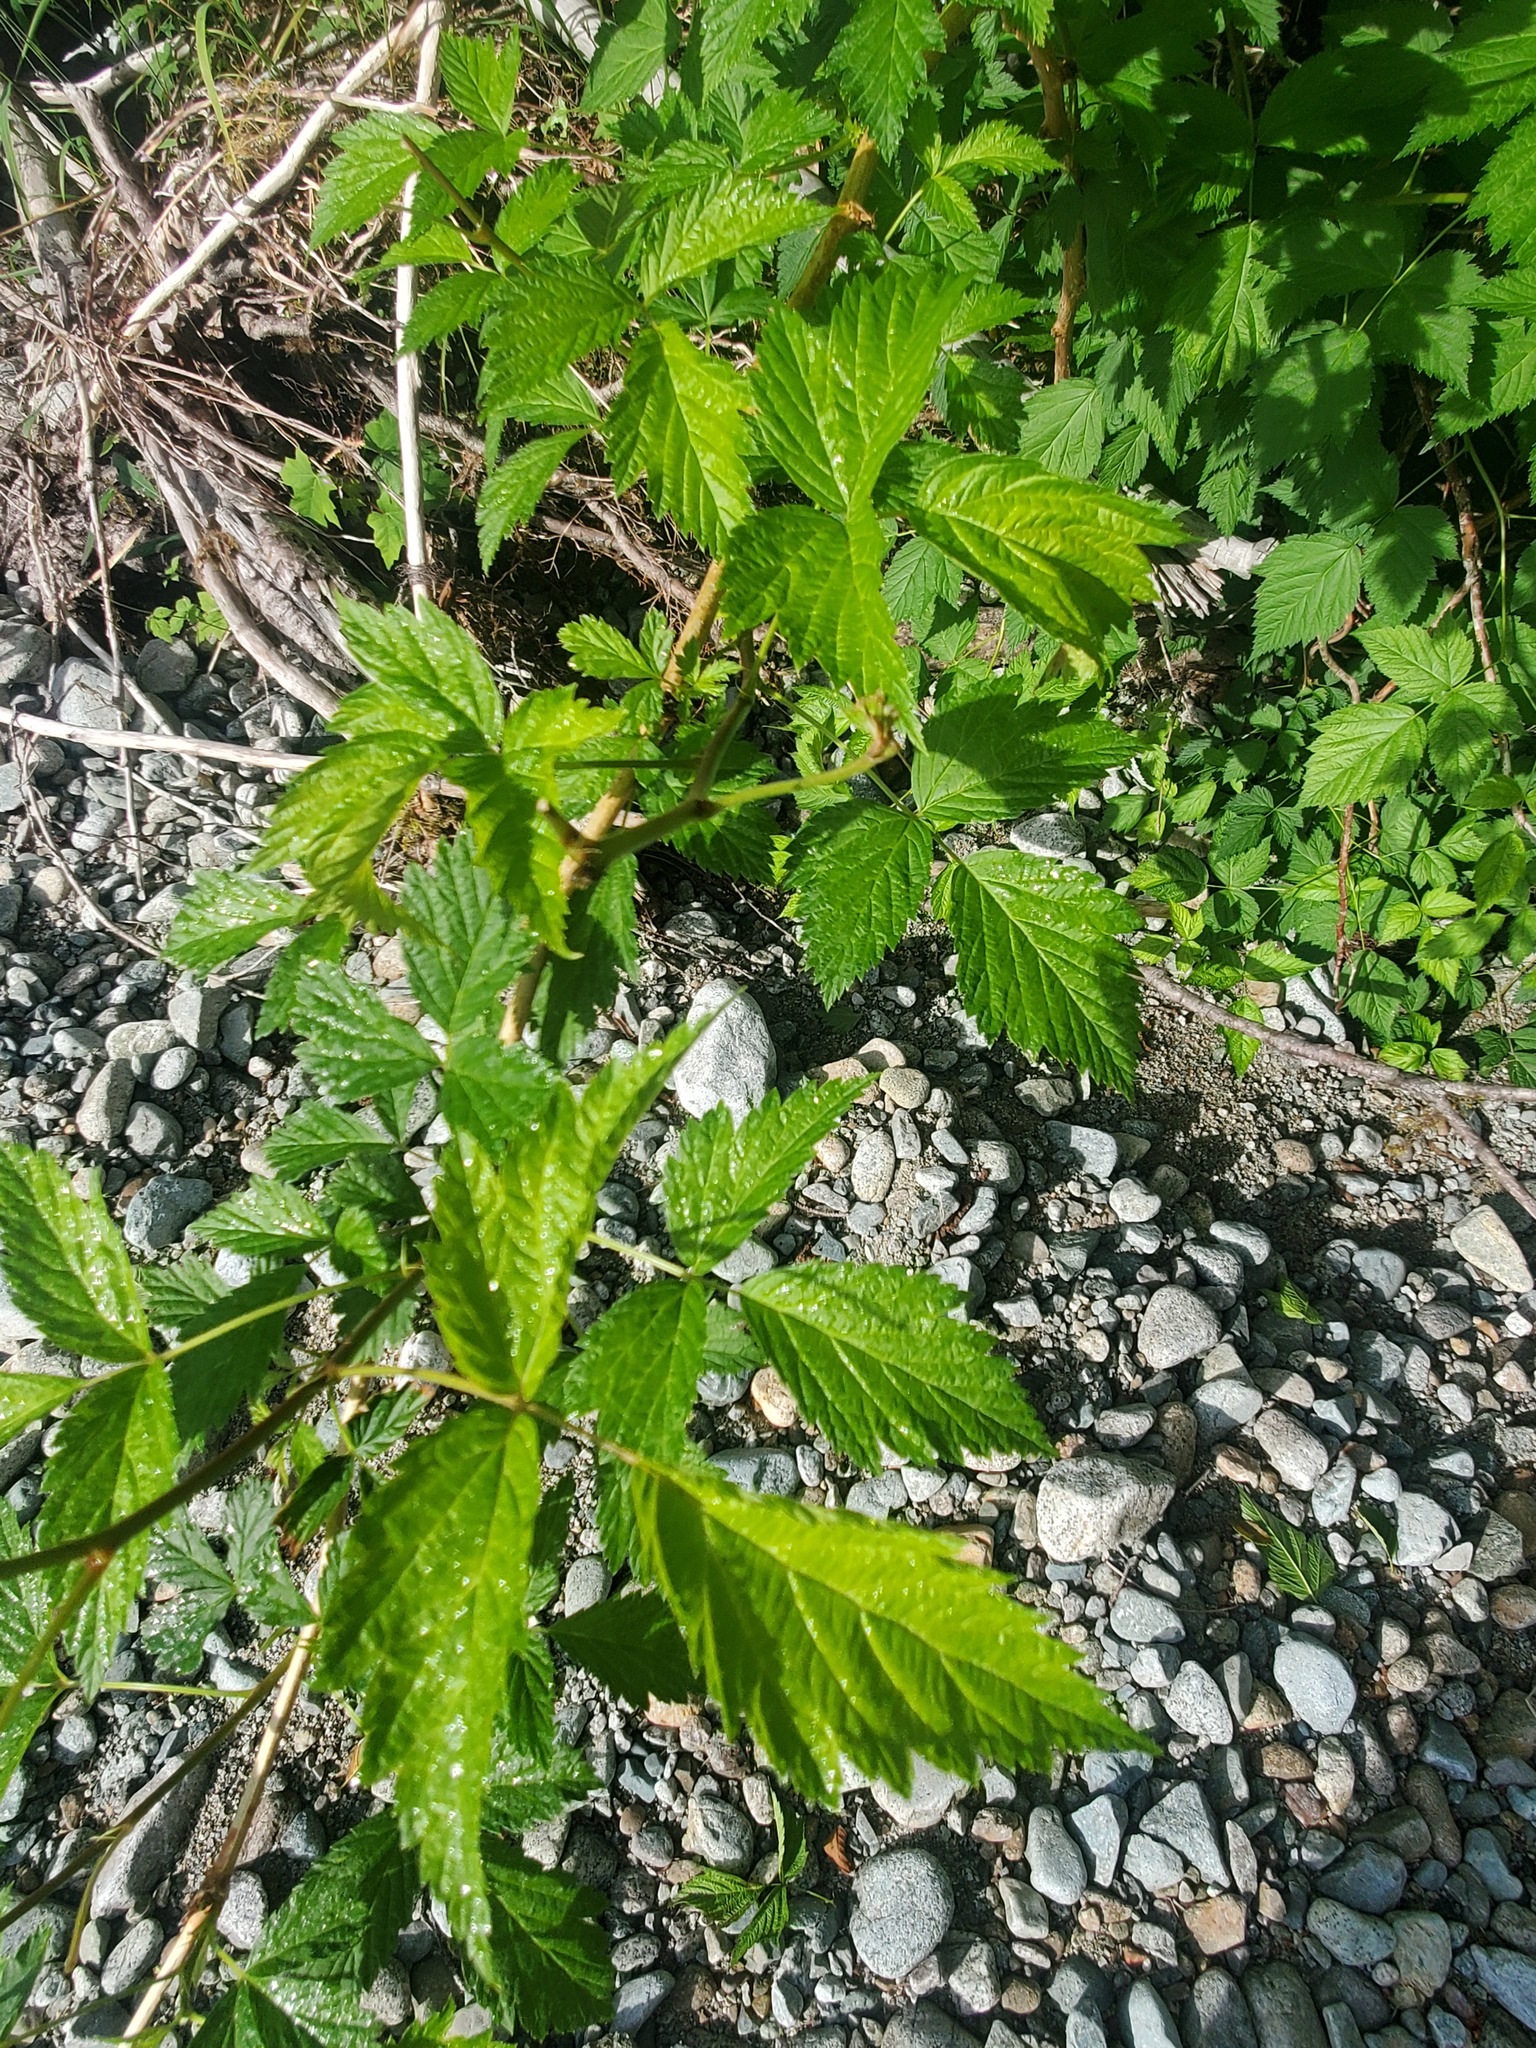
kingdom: Plantae
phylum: Tracheophyta
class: Magnoliopsida
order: Rosales
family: Rosaceae
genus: Rubus
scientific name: Rubus spectabilis
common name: Salmonberry
